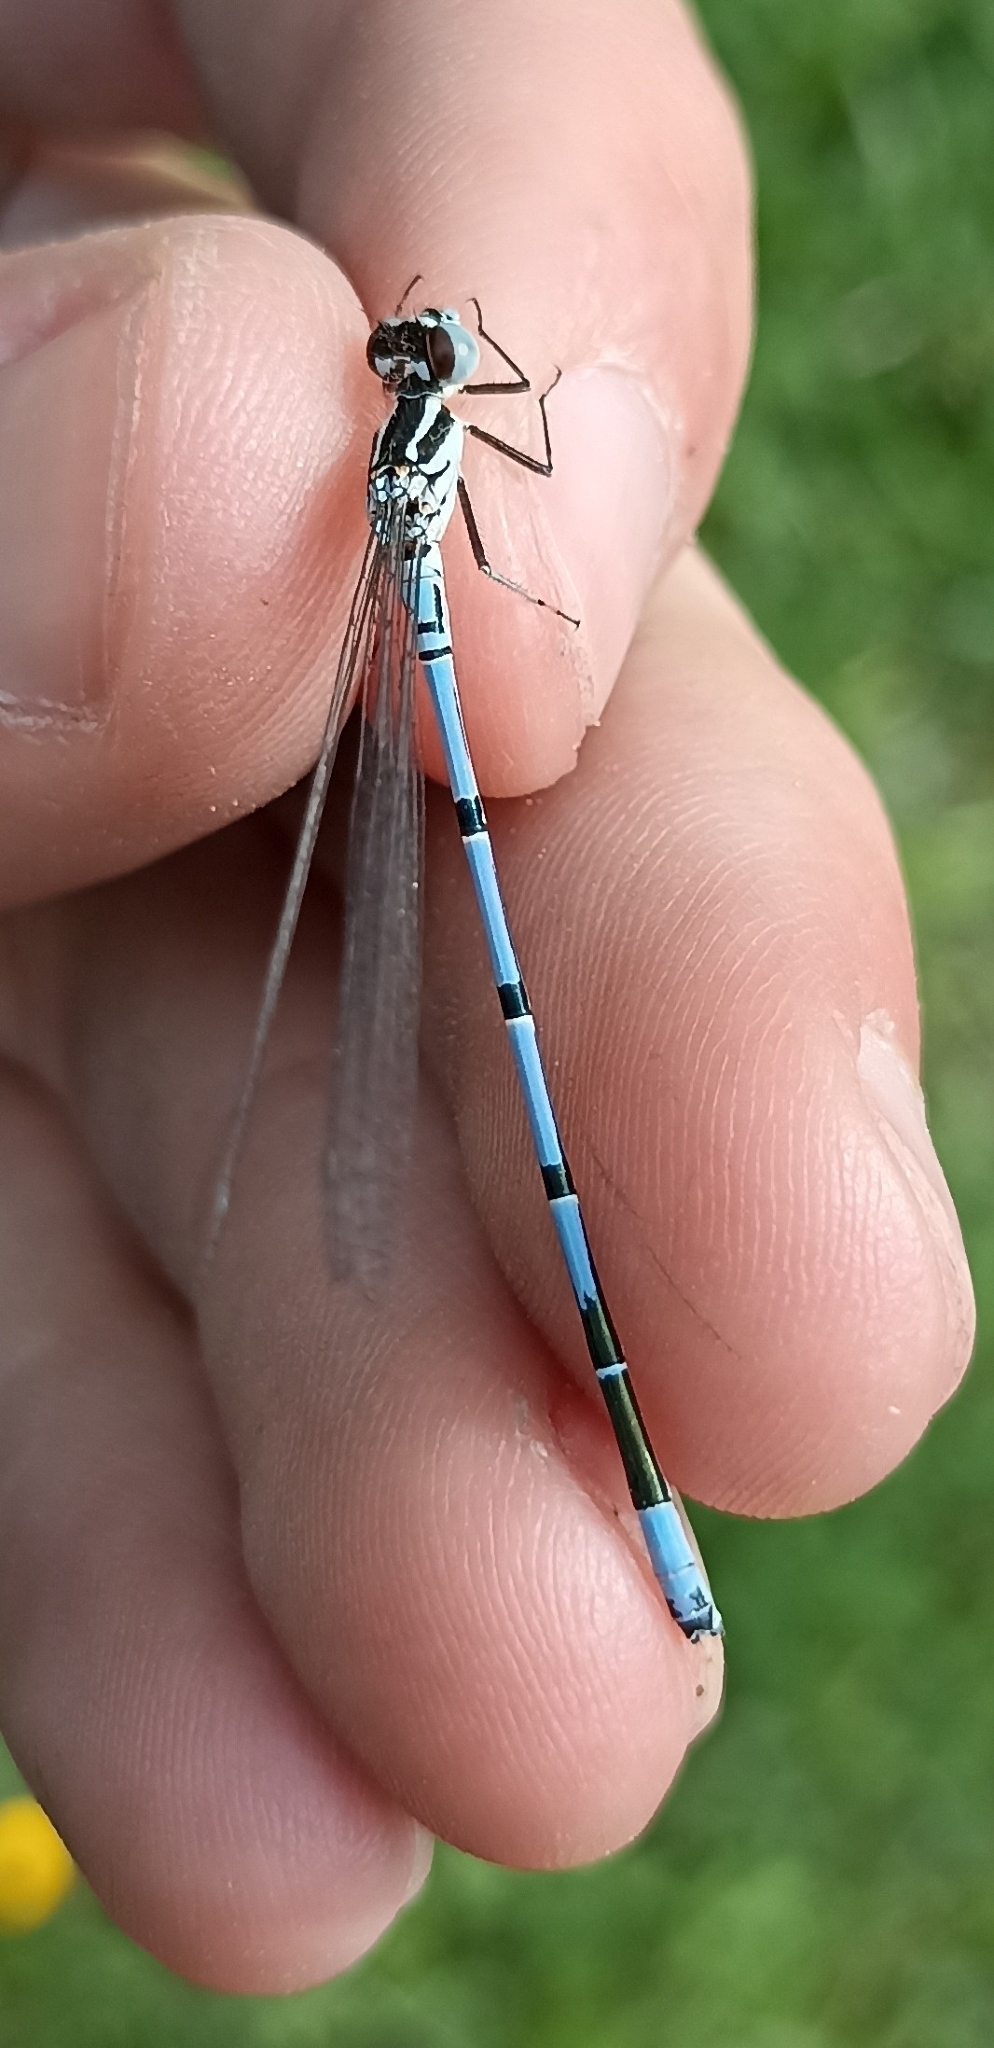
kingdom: Animalia
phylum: Arthropoda
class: Insecta
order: Odonata
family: Coenagrionidae
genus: Coenagrion
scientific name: Coenagrion puella
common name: Azure damselfly
